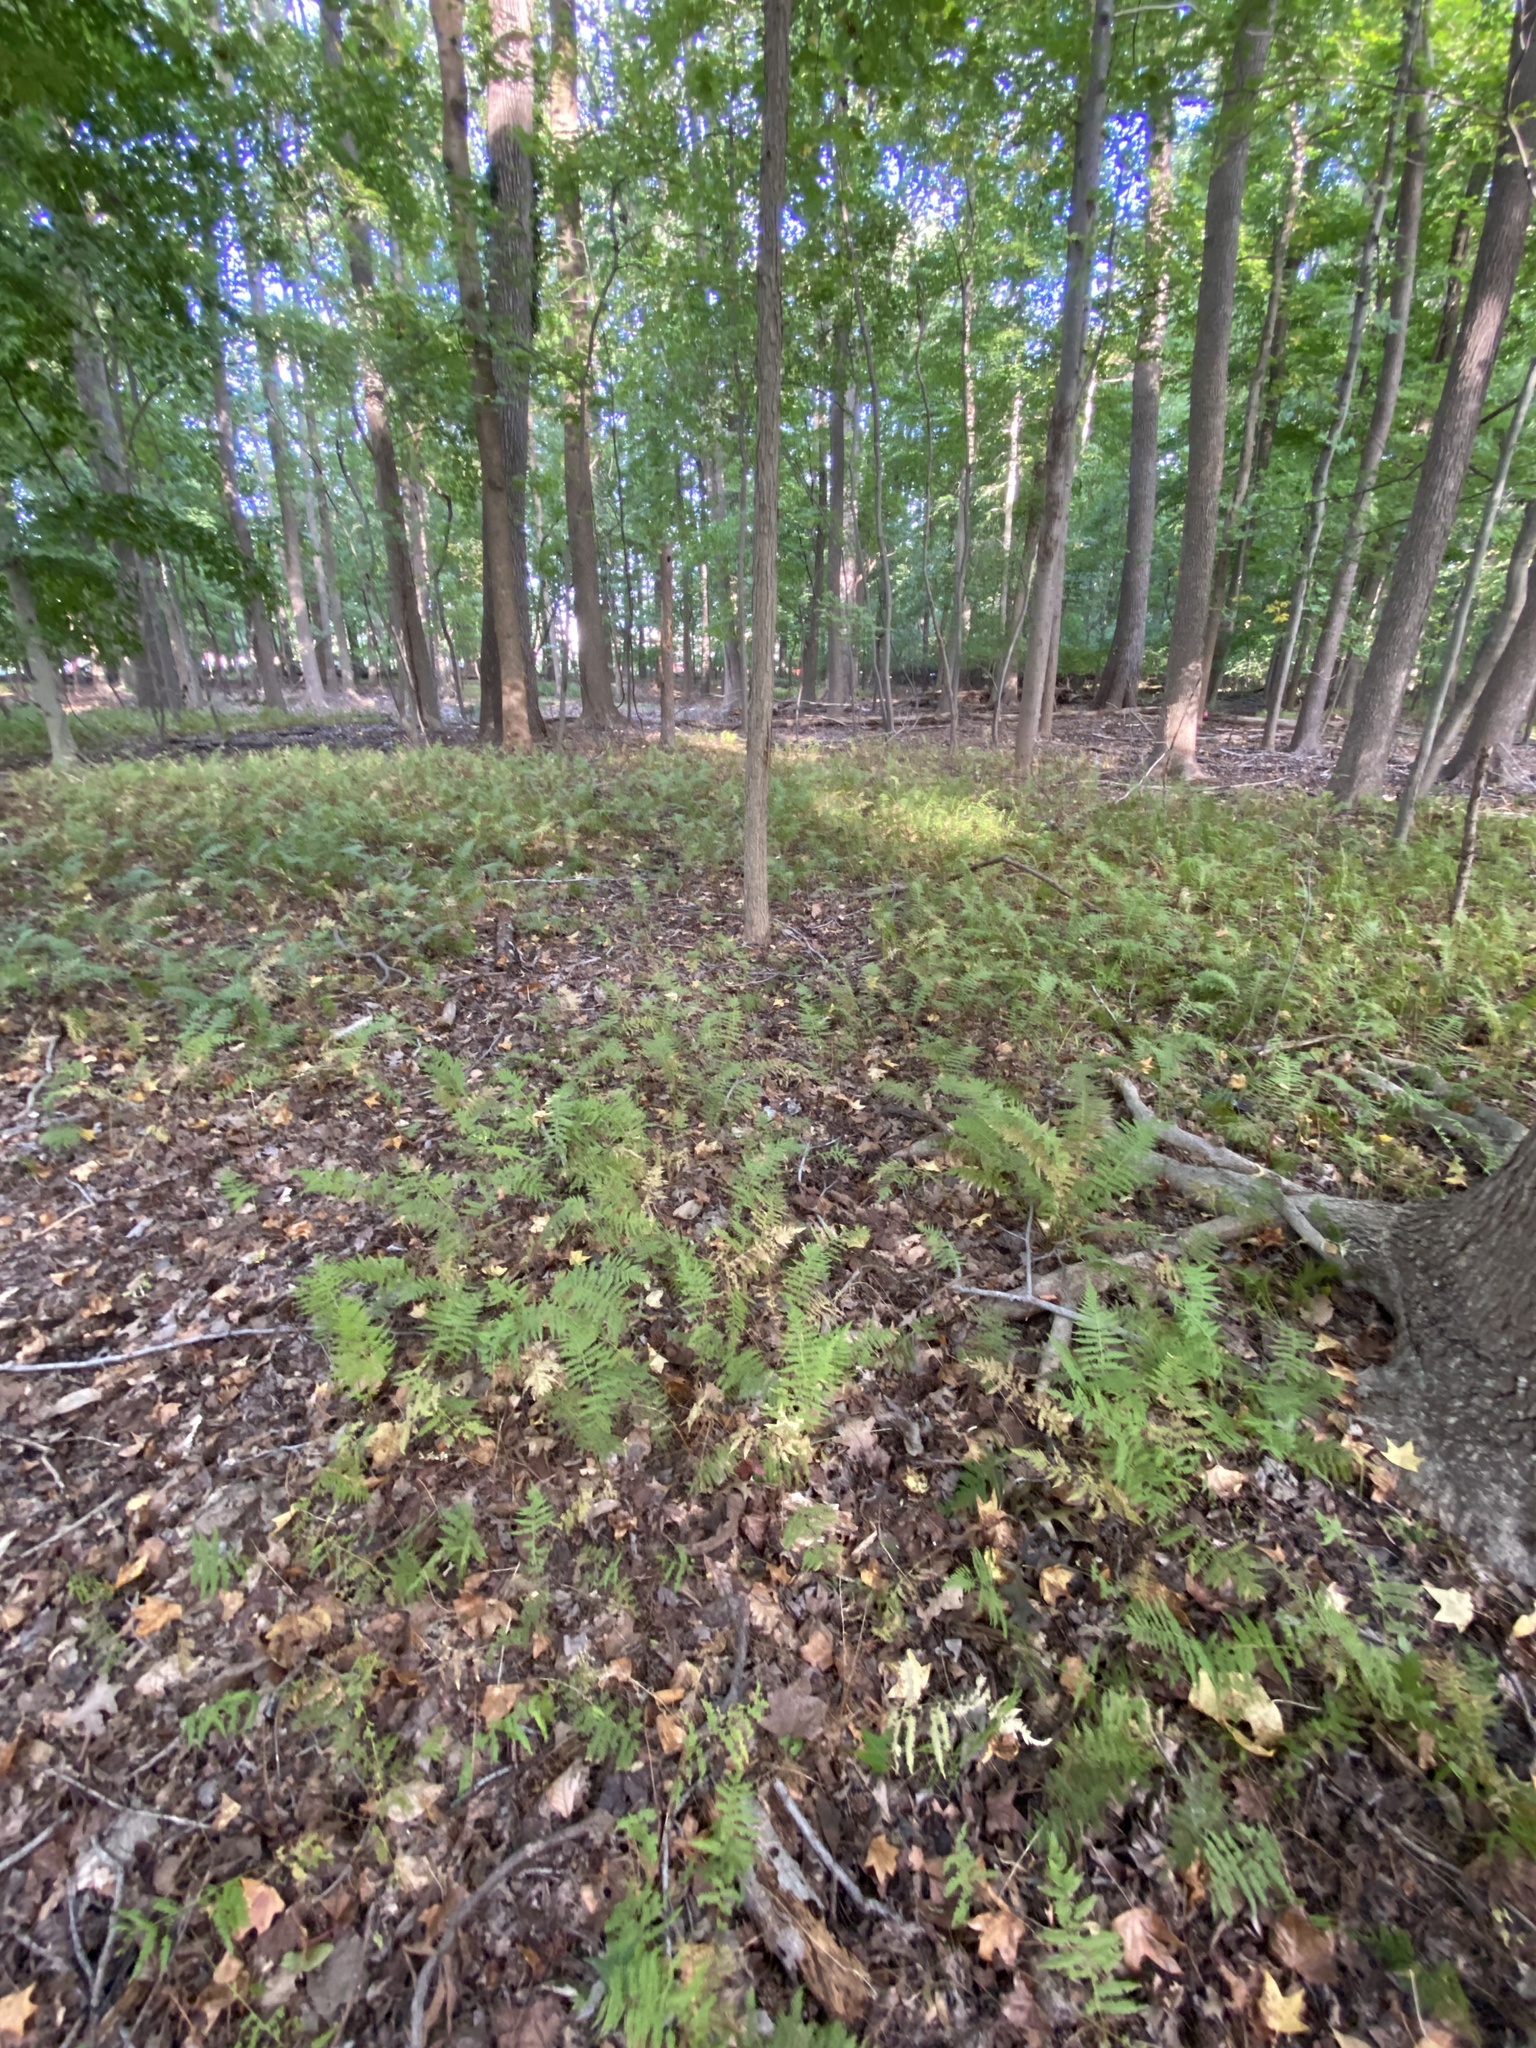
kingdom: Plantae
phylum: Tracheophyta
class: Polypodiopsida
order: Polypodiales
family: Thelypteridaceae
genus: Amauropelta
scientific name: Amauropelta noveboracensis
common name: New york fern
